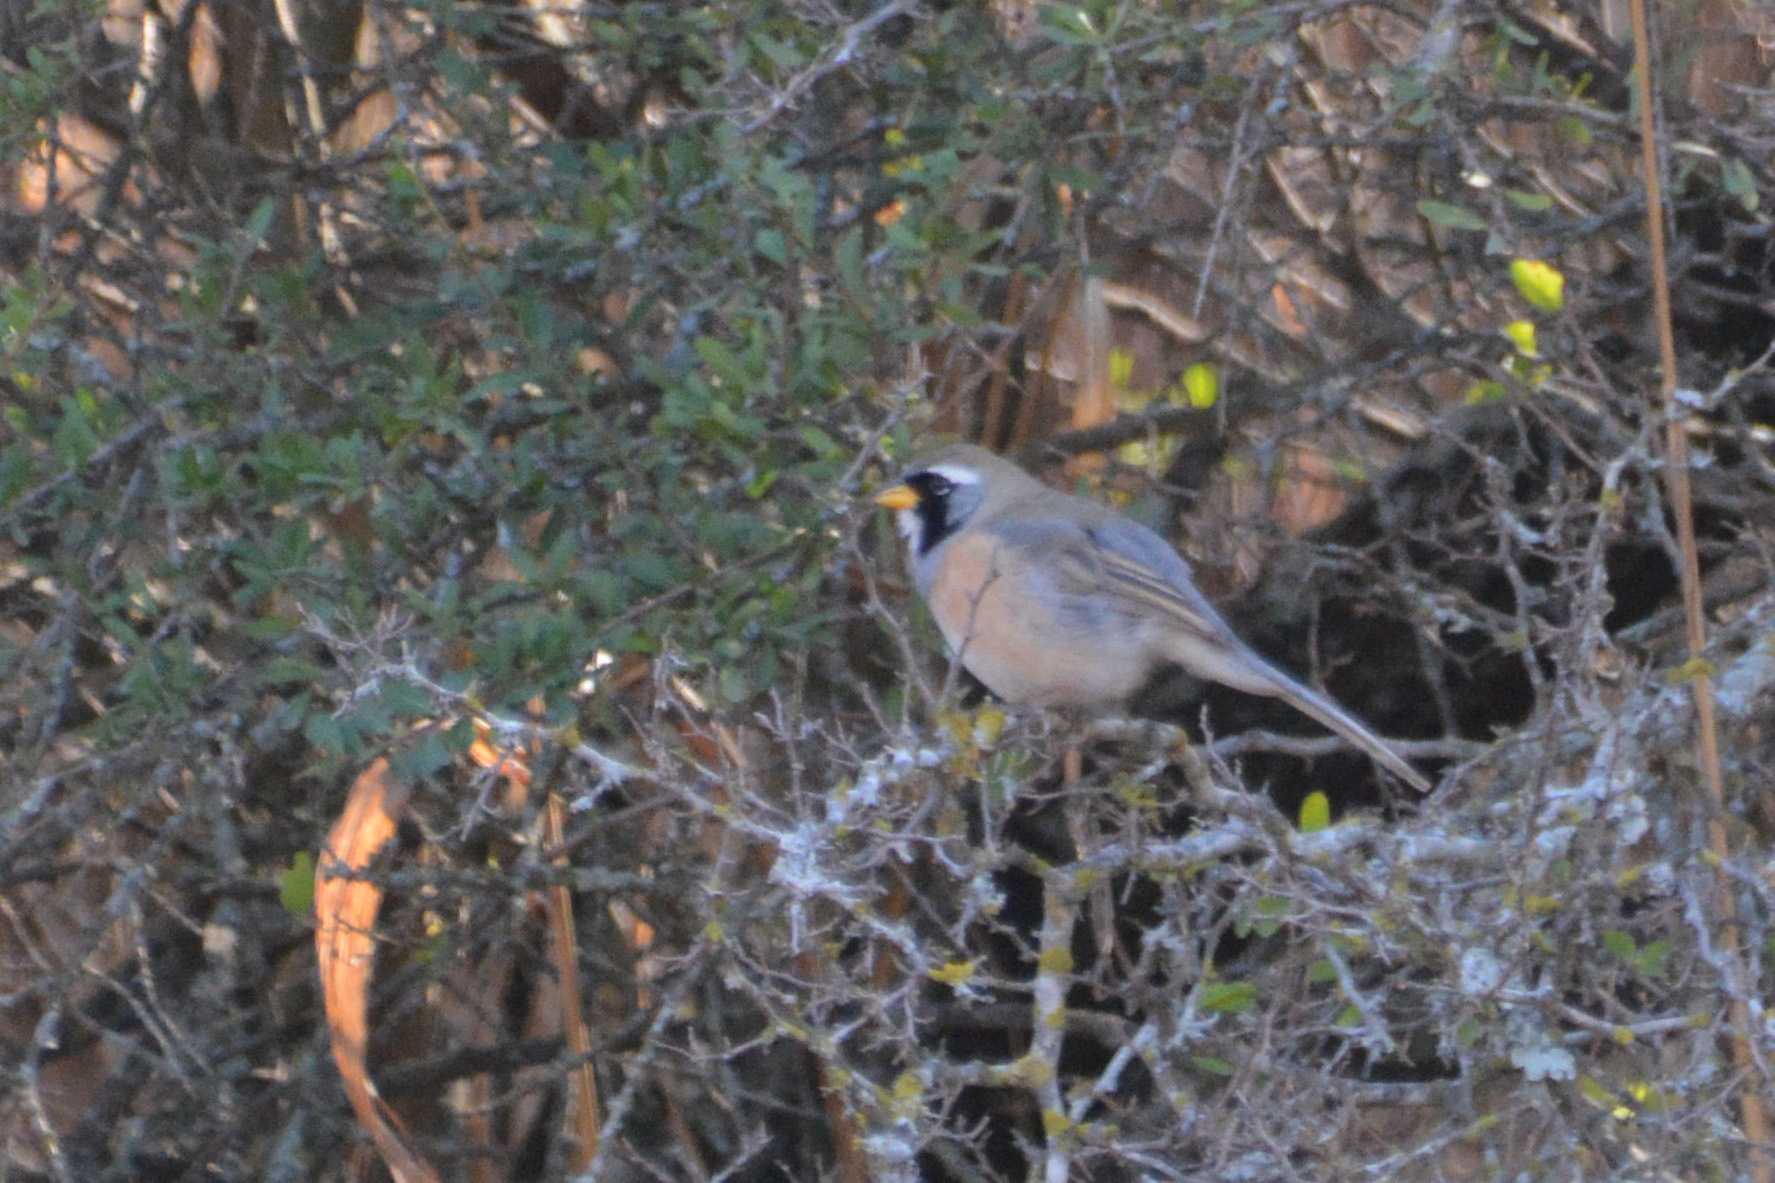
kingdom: Animalia
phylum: Chordata
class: Aves
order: Passeriformes
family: Thraupidae
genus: Saltatricula
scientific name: Saltatricula multicolor
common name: Many-colored chaco finch
